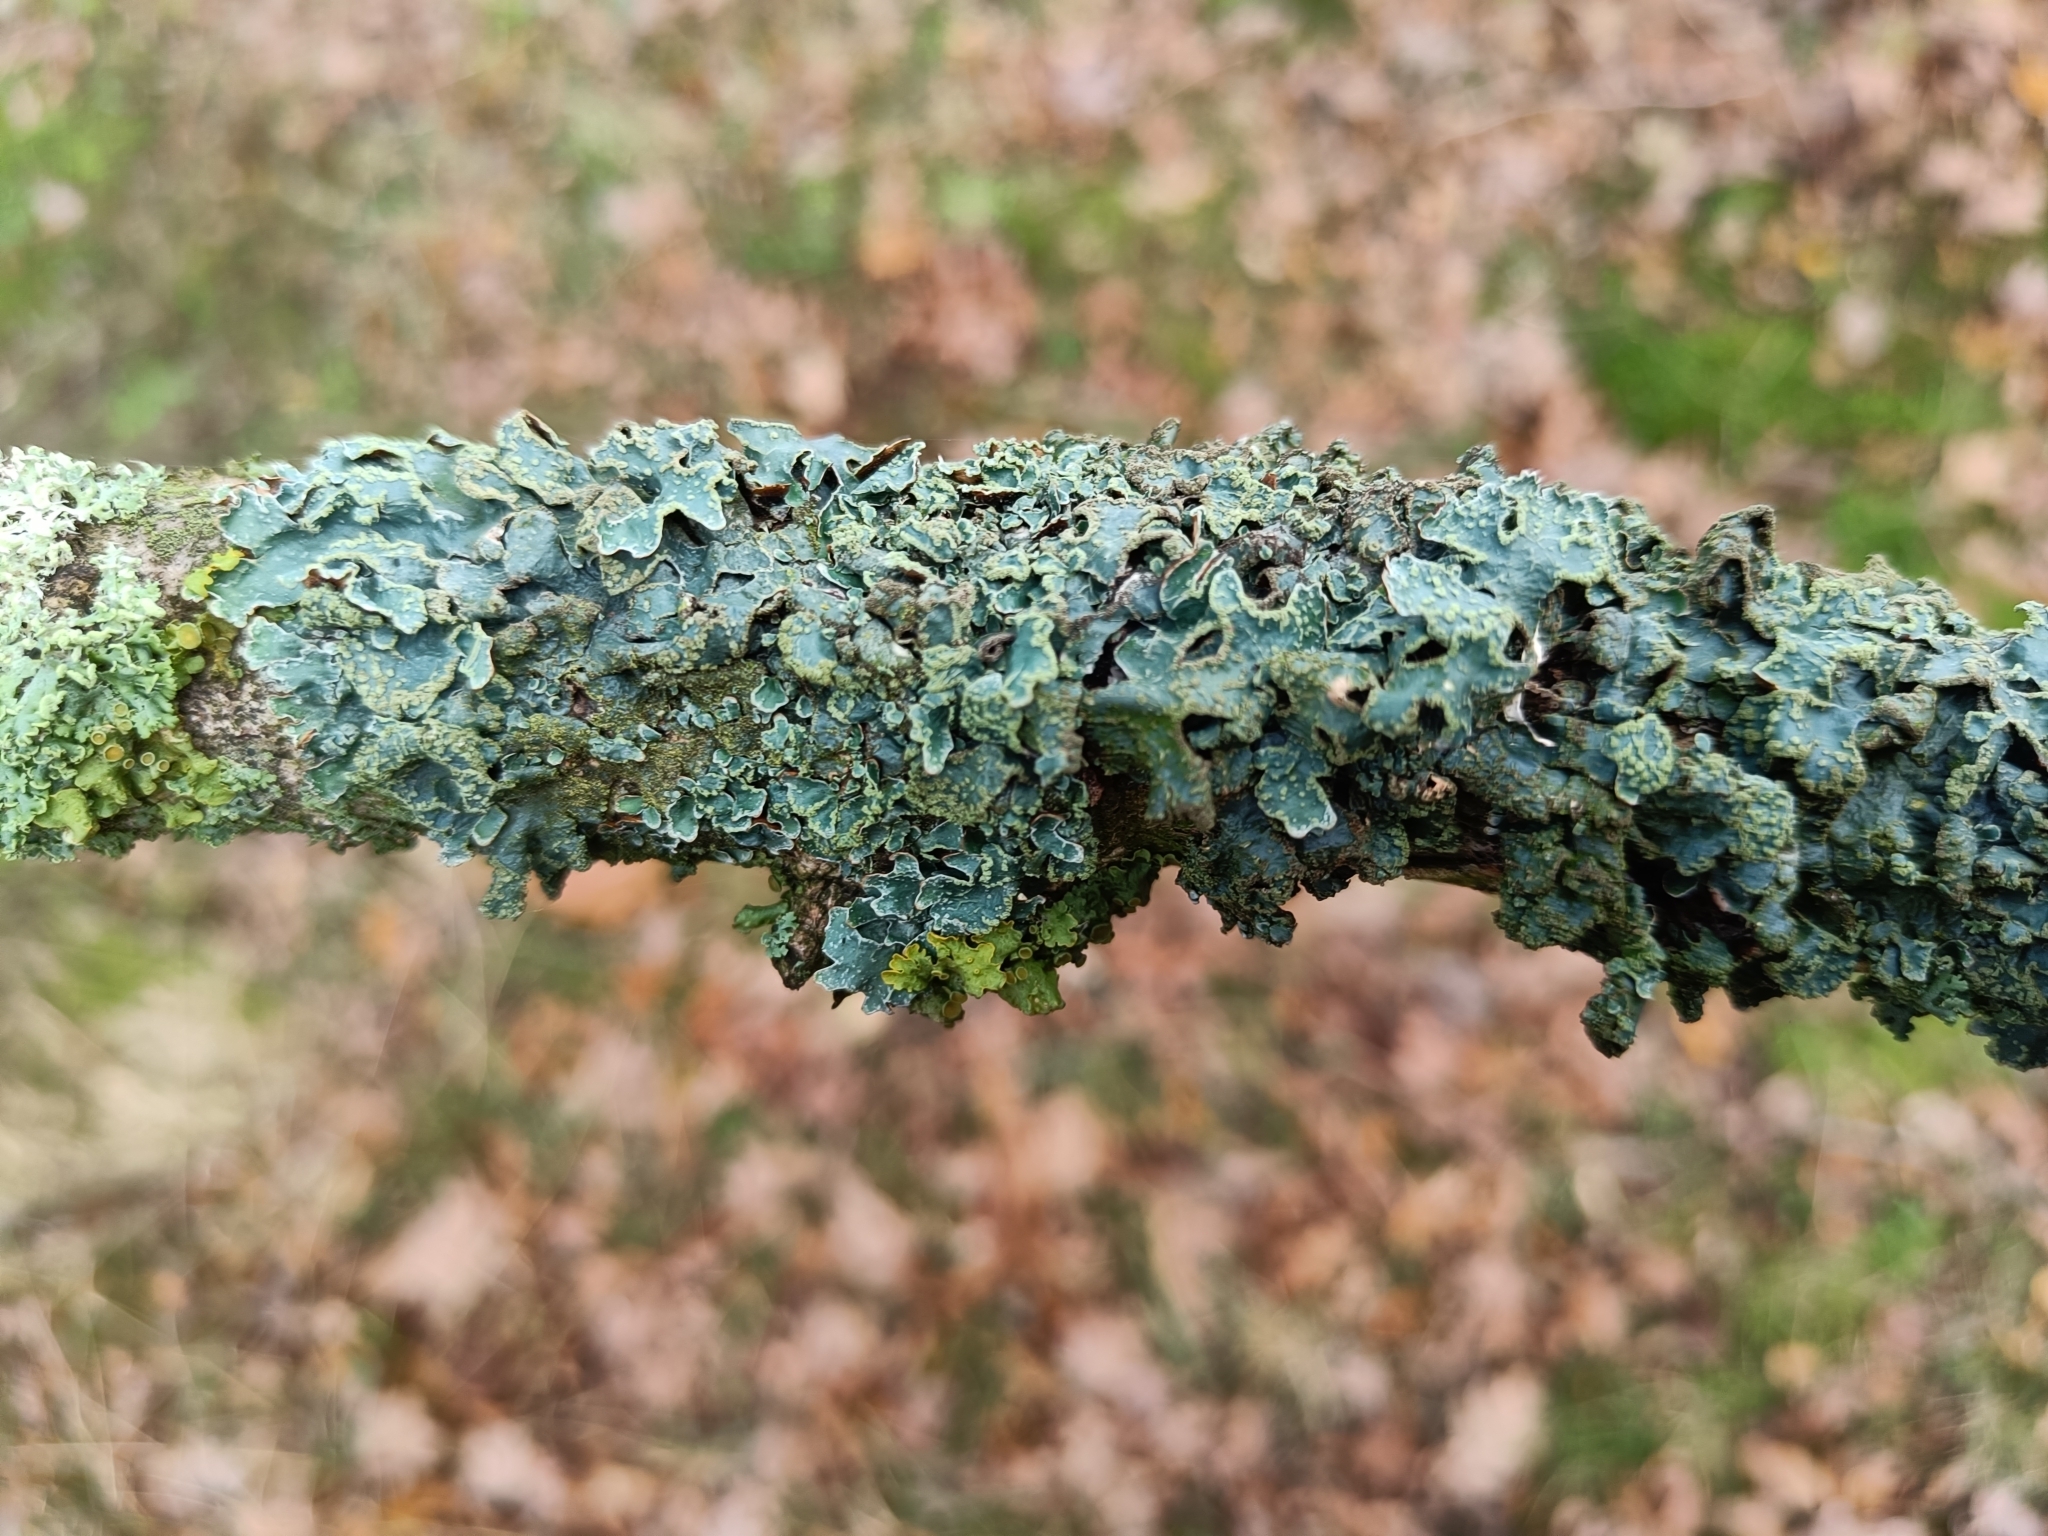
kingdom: Fungi
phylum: Ascomycota
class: Lecanoromycetes
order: Lecanorales
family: Parmeliaceae
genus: Parmelia
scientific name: Parmelia sulcata
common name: Netted shield lichen
